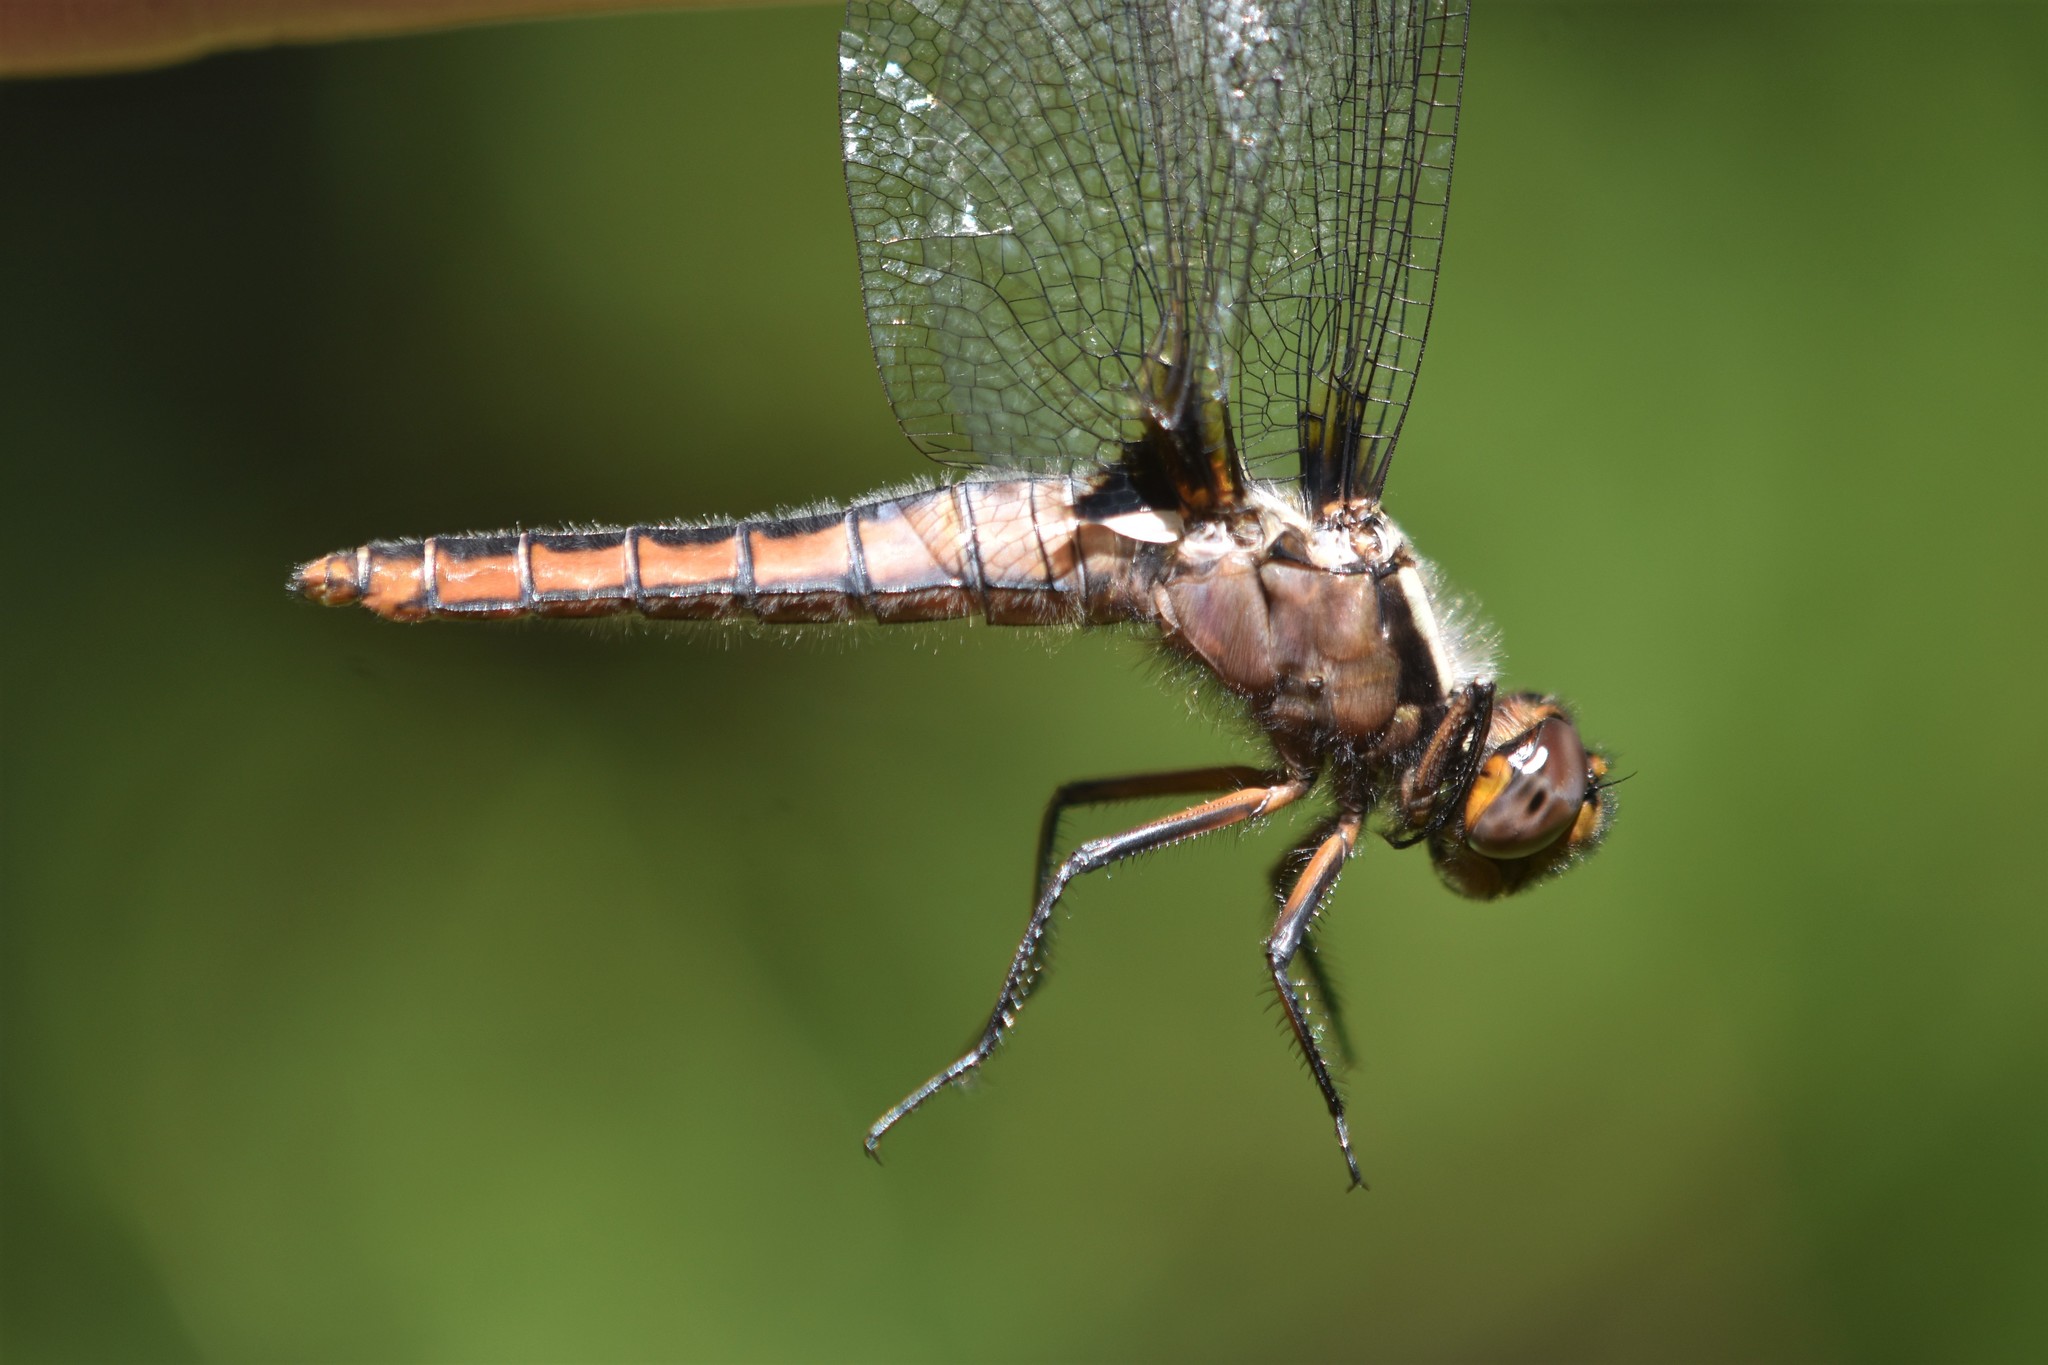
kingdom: Animalia
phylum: Arthropoda
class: Insecta
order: Odonata
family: Libellulidae
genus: Ladona
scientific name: Ladona julia
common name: Chalk-fronted corporal
